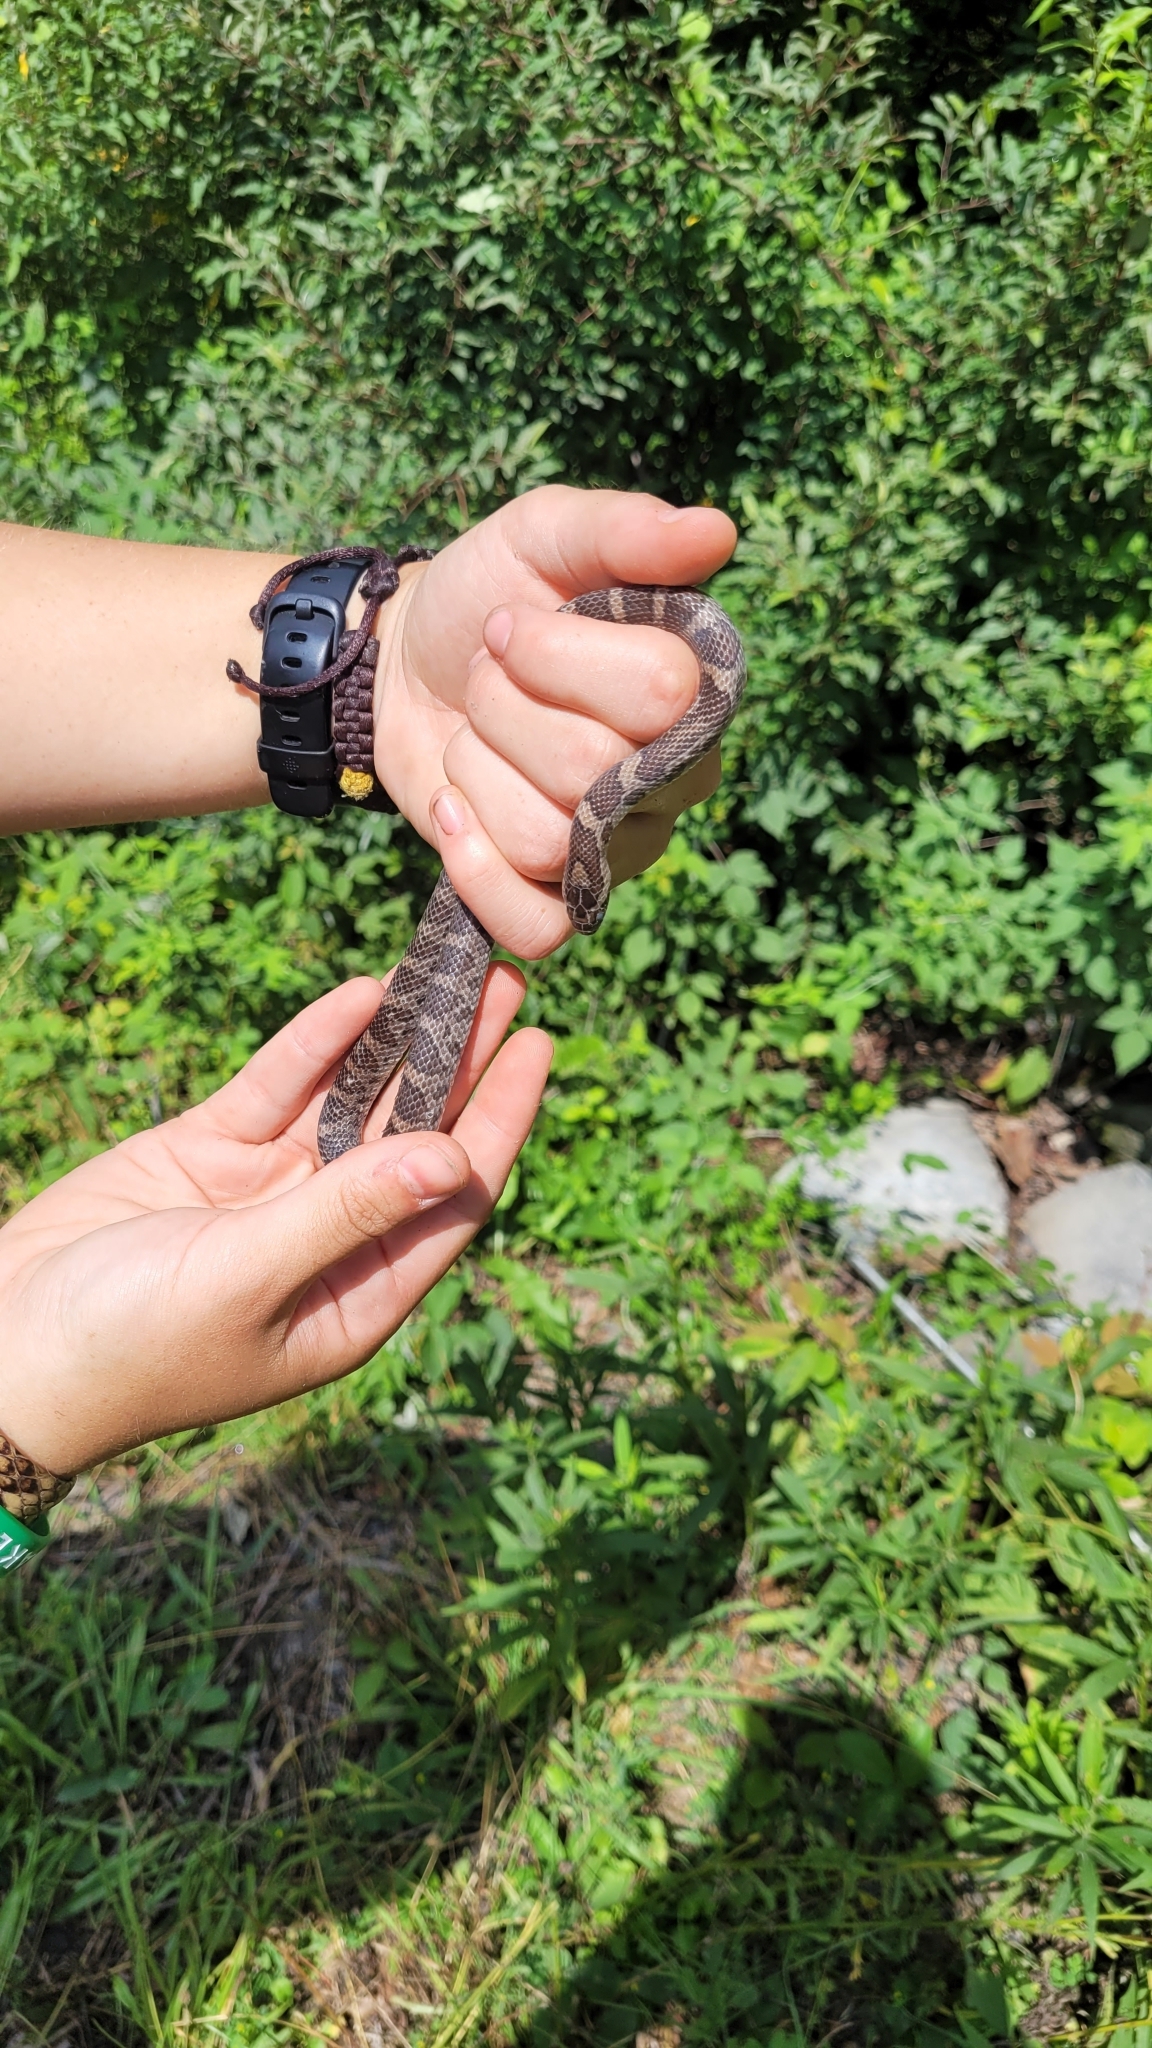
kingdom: Animalia
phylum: Chordata
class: Squamata
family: Colubridae
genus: Lampropeltis
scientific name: Lampropeltis triangulum
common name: Eastern milksnake
